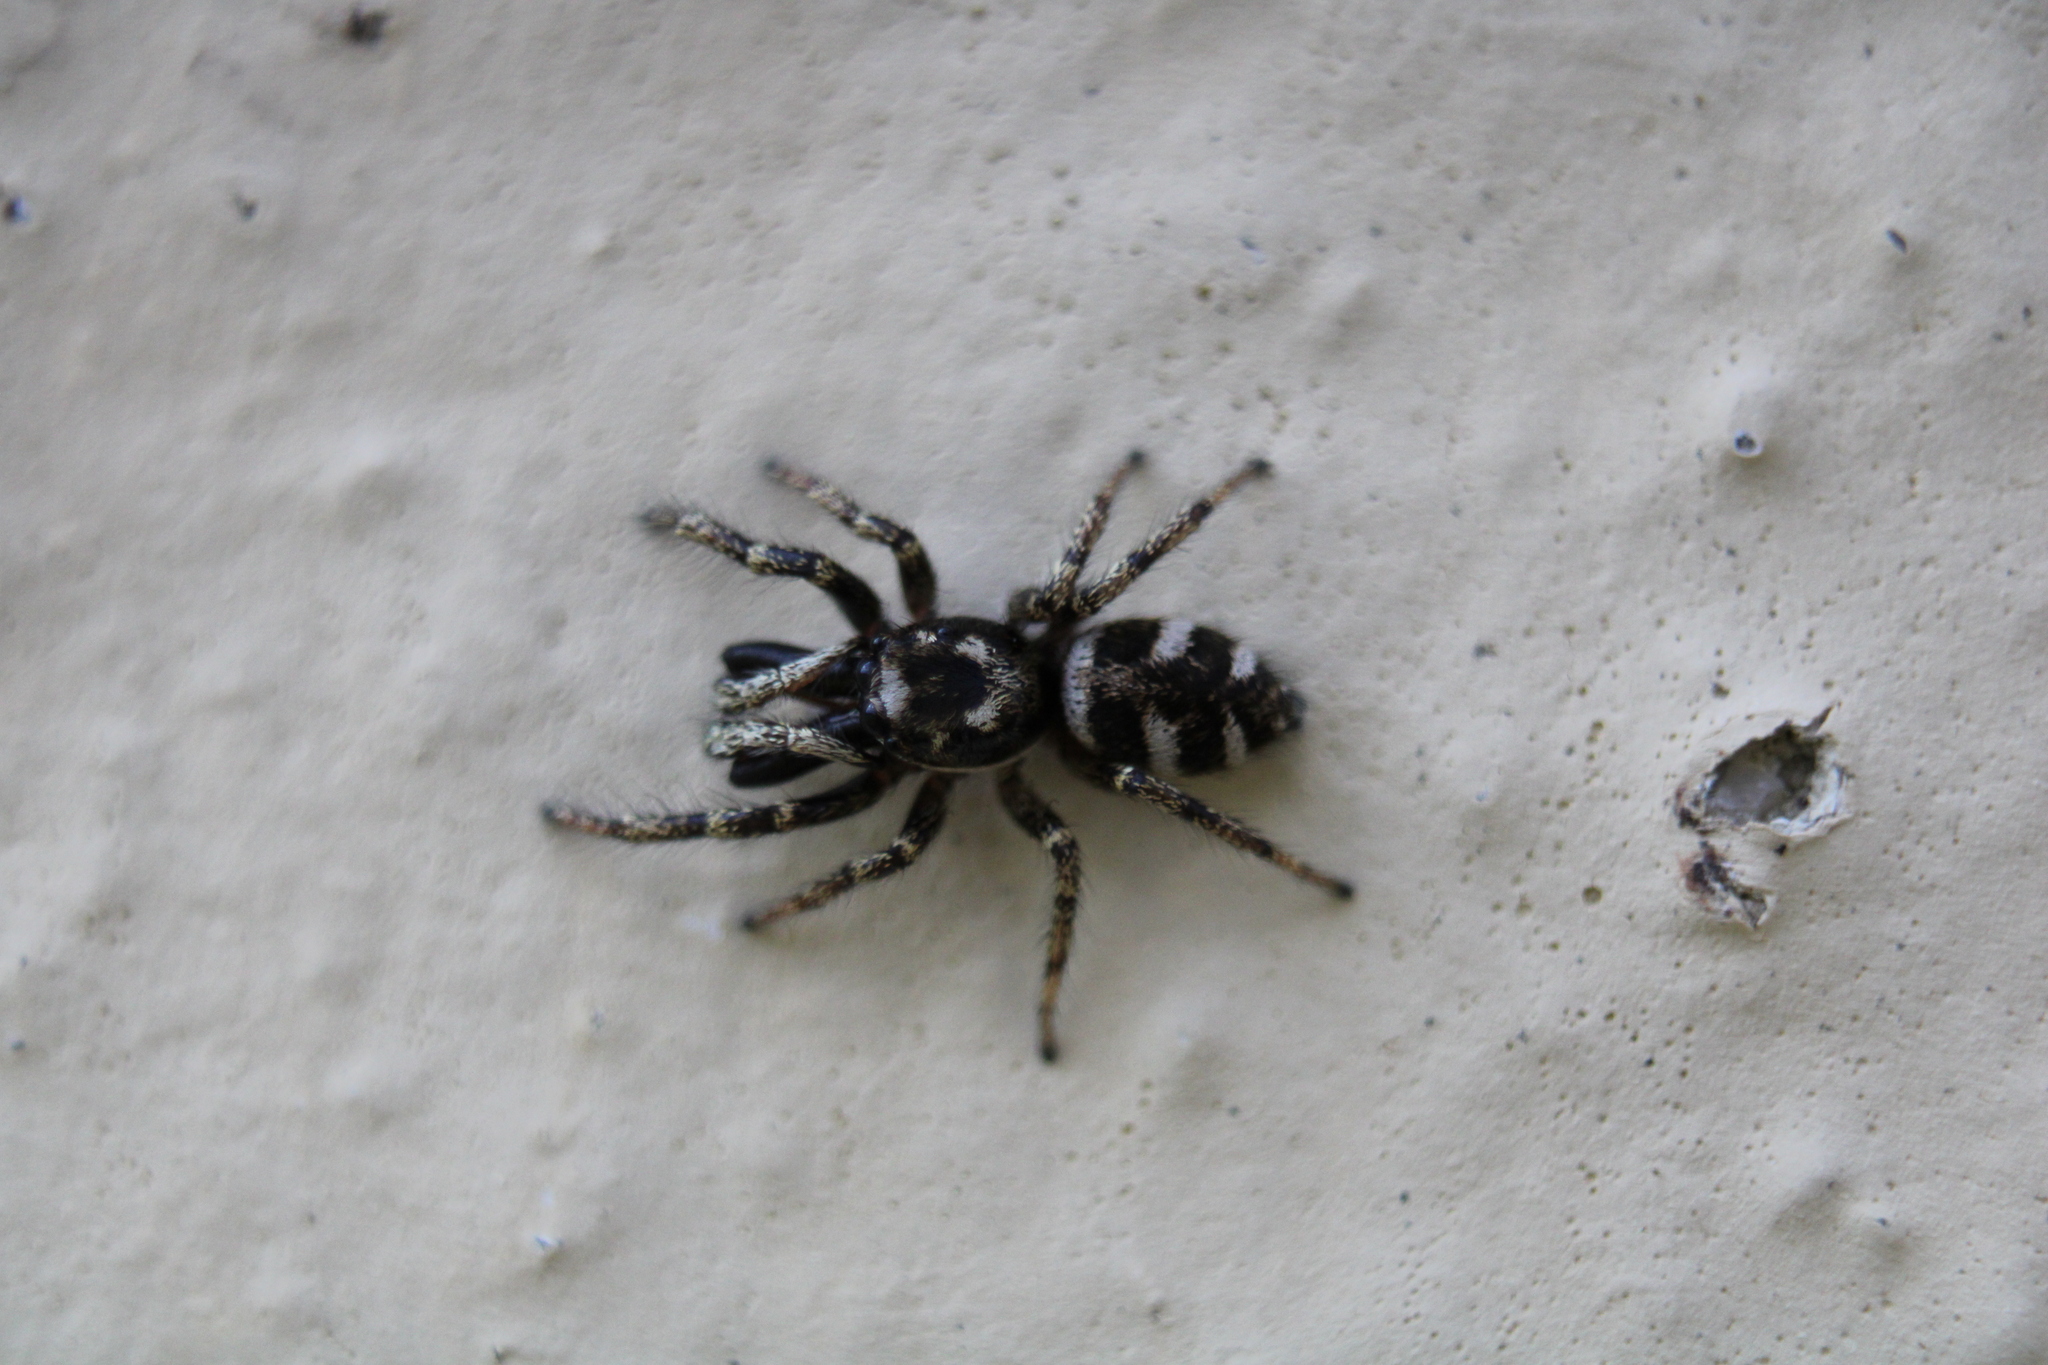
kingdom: Animalia
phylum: Arthropoda
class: Arachnida
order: Araneae
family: Salticidae
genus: Salticus
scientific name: Salticus scenicus
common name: Zebra jumper
